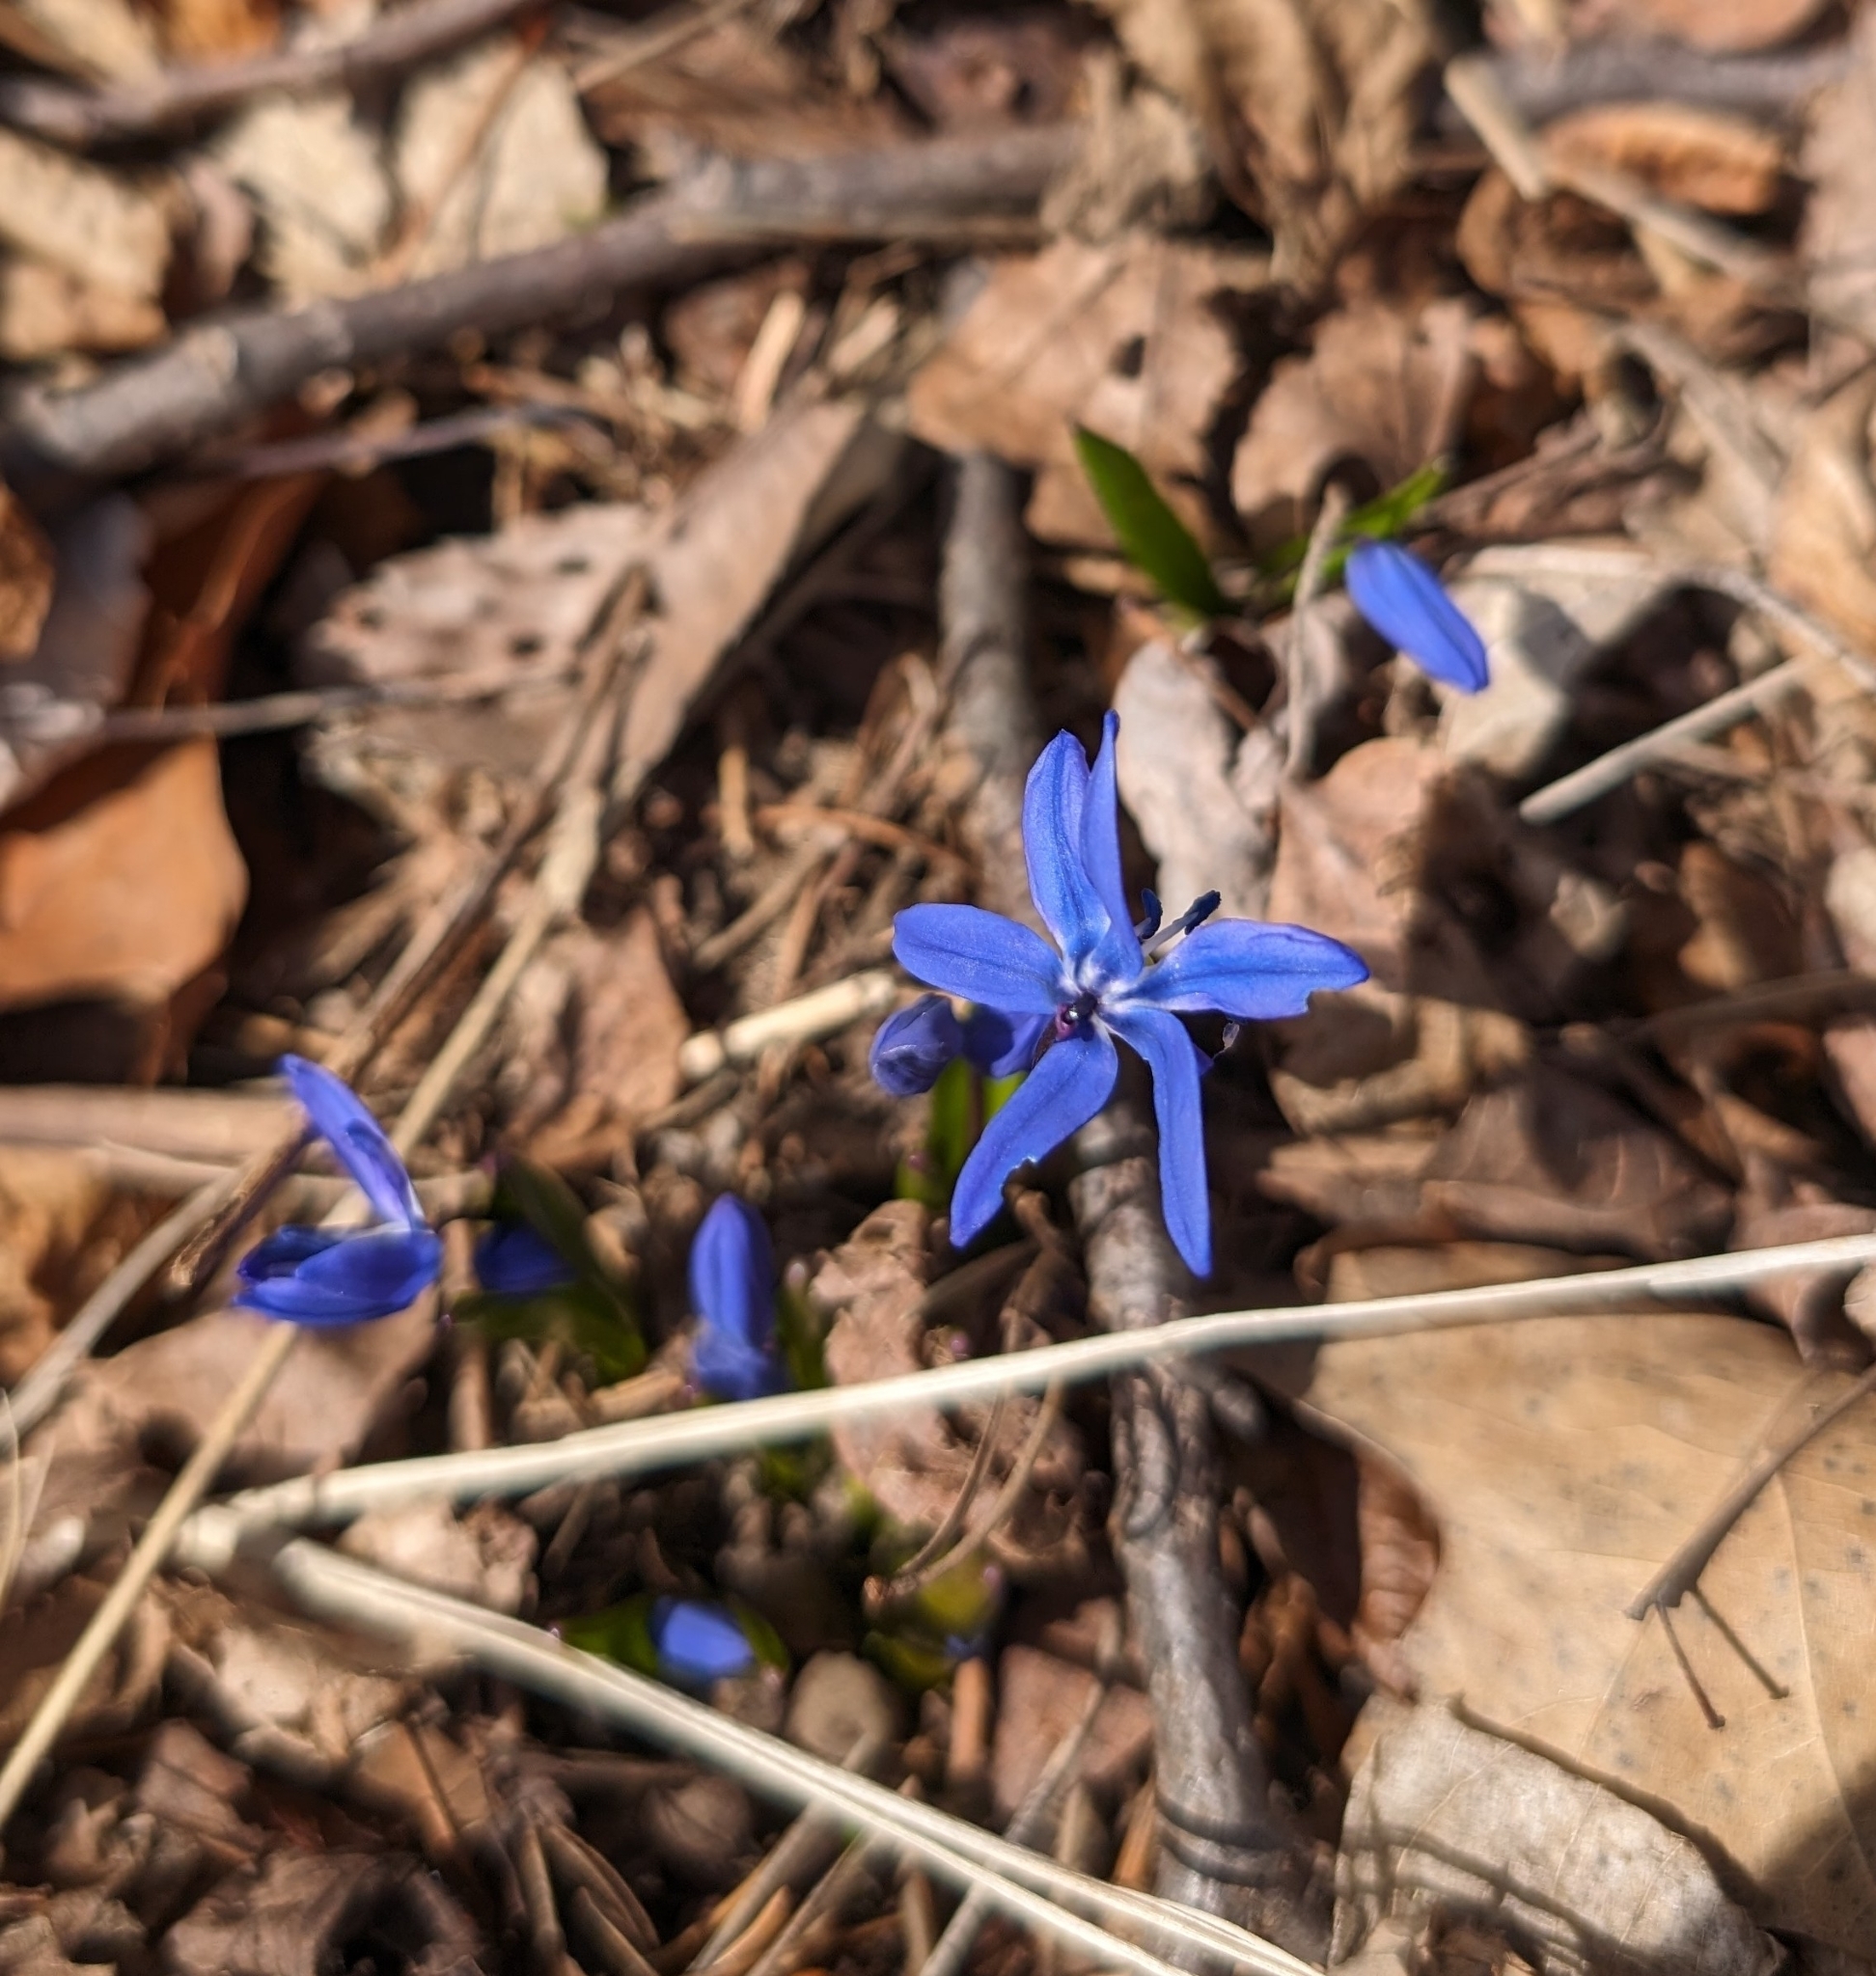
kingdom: Plantae
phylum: Tracheophyta
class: Liliopsida
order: Asparagales
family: Asparagaceae
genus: Scilla
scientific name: Scilla siberica
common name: Siberian squill
